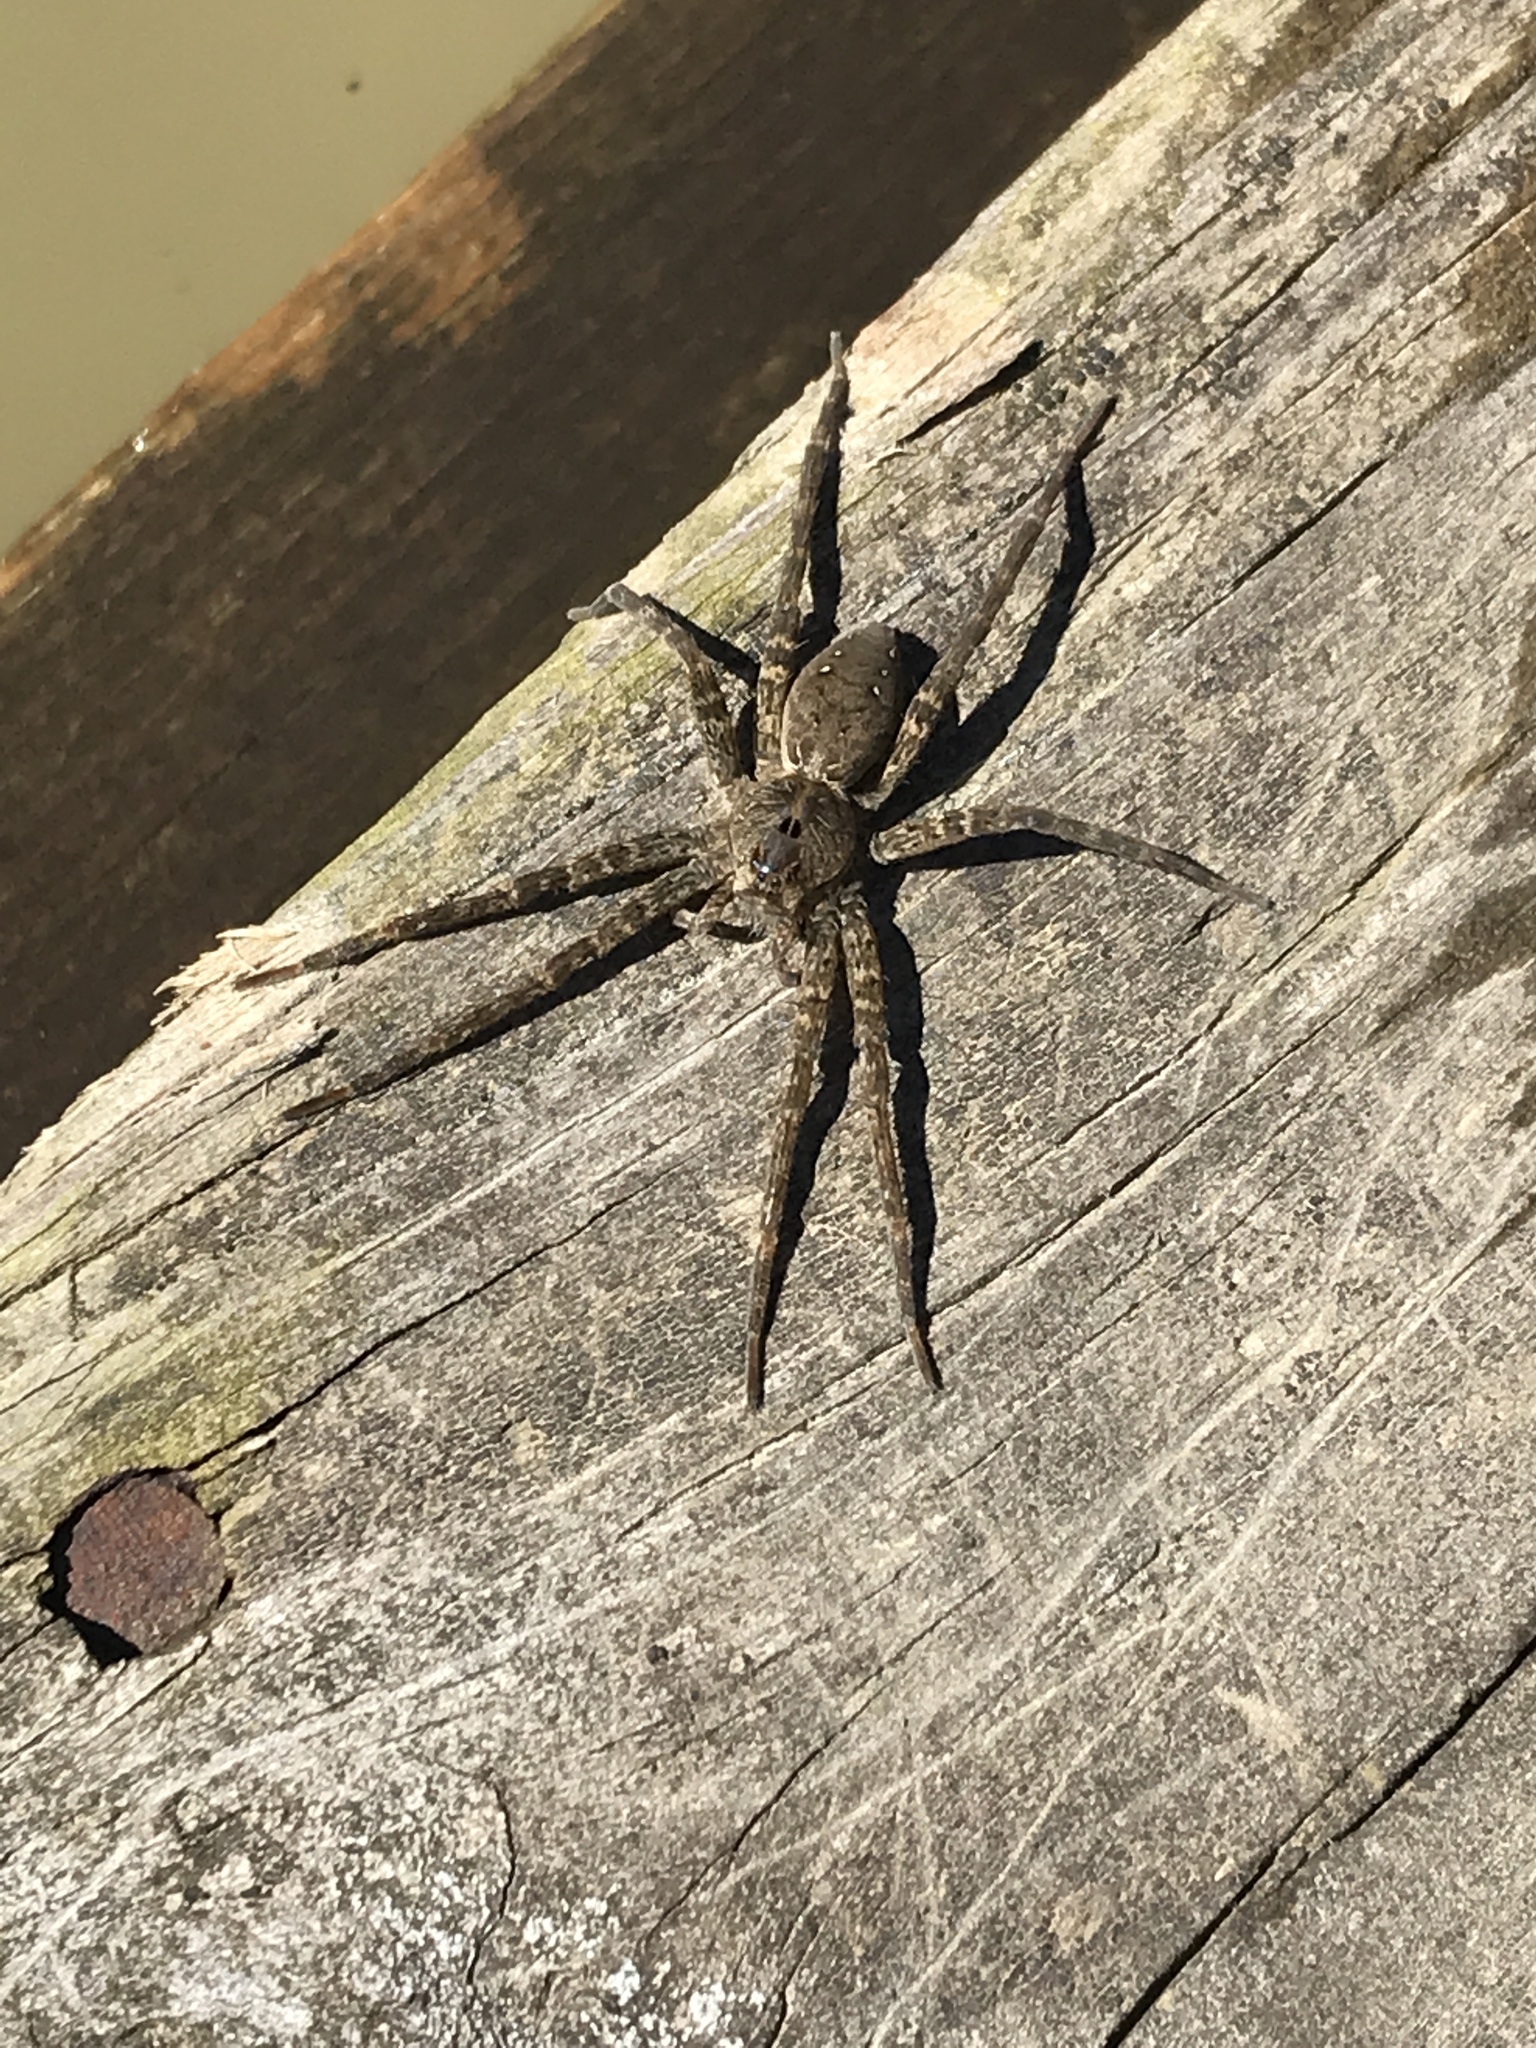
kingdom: Animalia
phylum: Arthropoda
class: Arachnida
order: Araneae
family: Pisauridae
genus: Dolomedes
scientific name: Dolomedes vittatus
